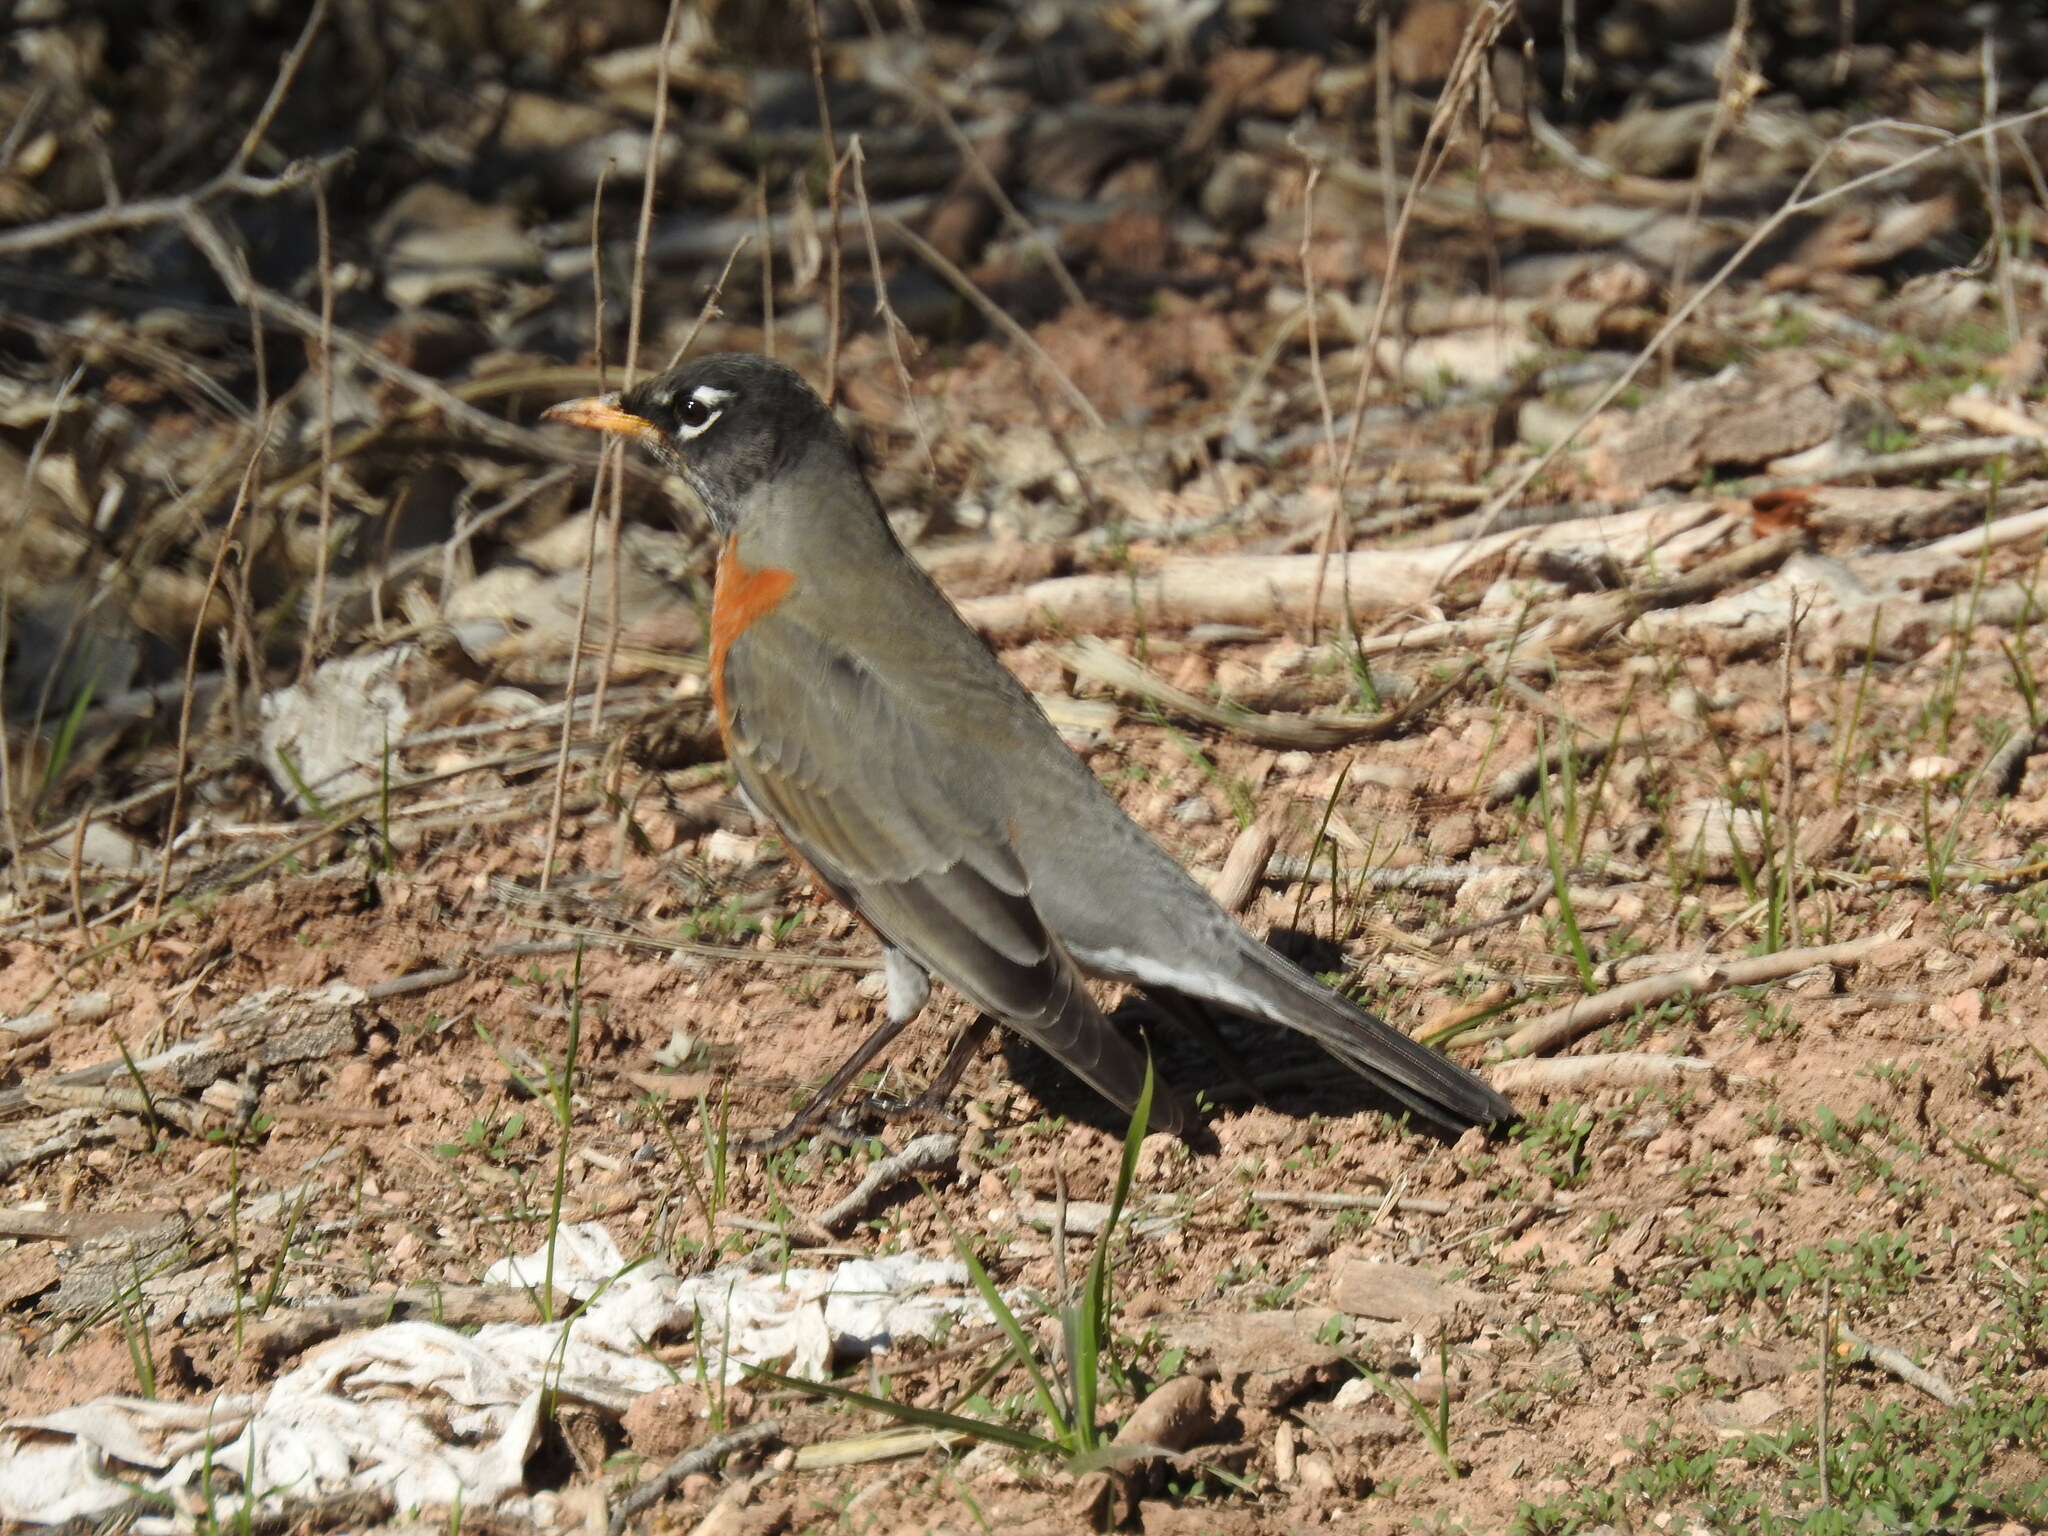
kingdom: Animalia
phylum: Chordata
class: Aves
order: Passeriformes
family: Turdidae
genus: Turdus
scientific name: Turdus migratorius
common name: American robin
